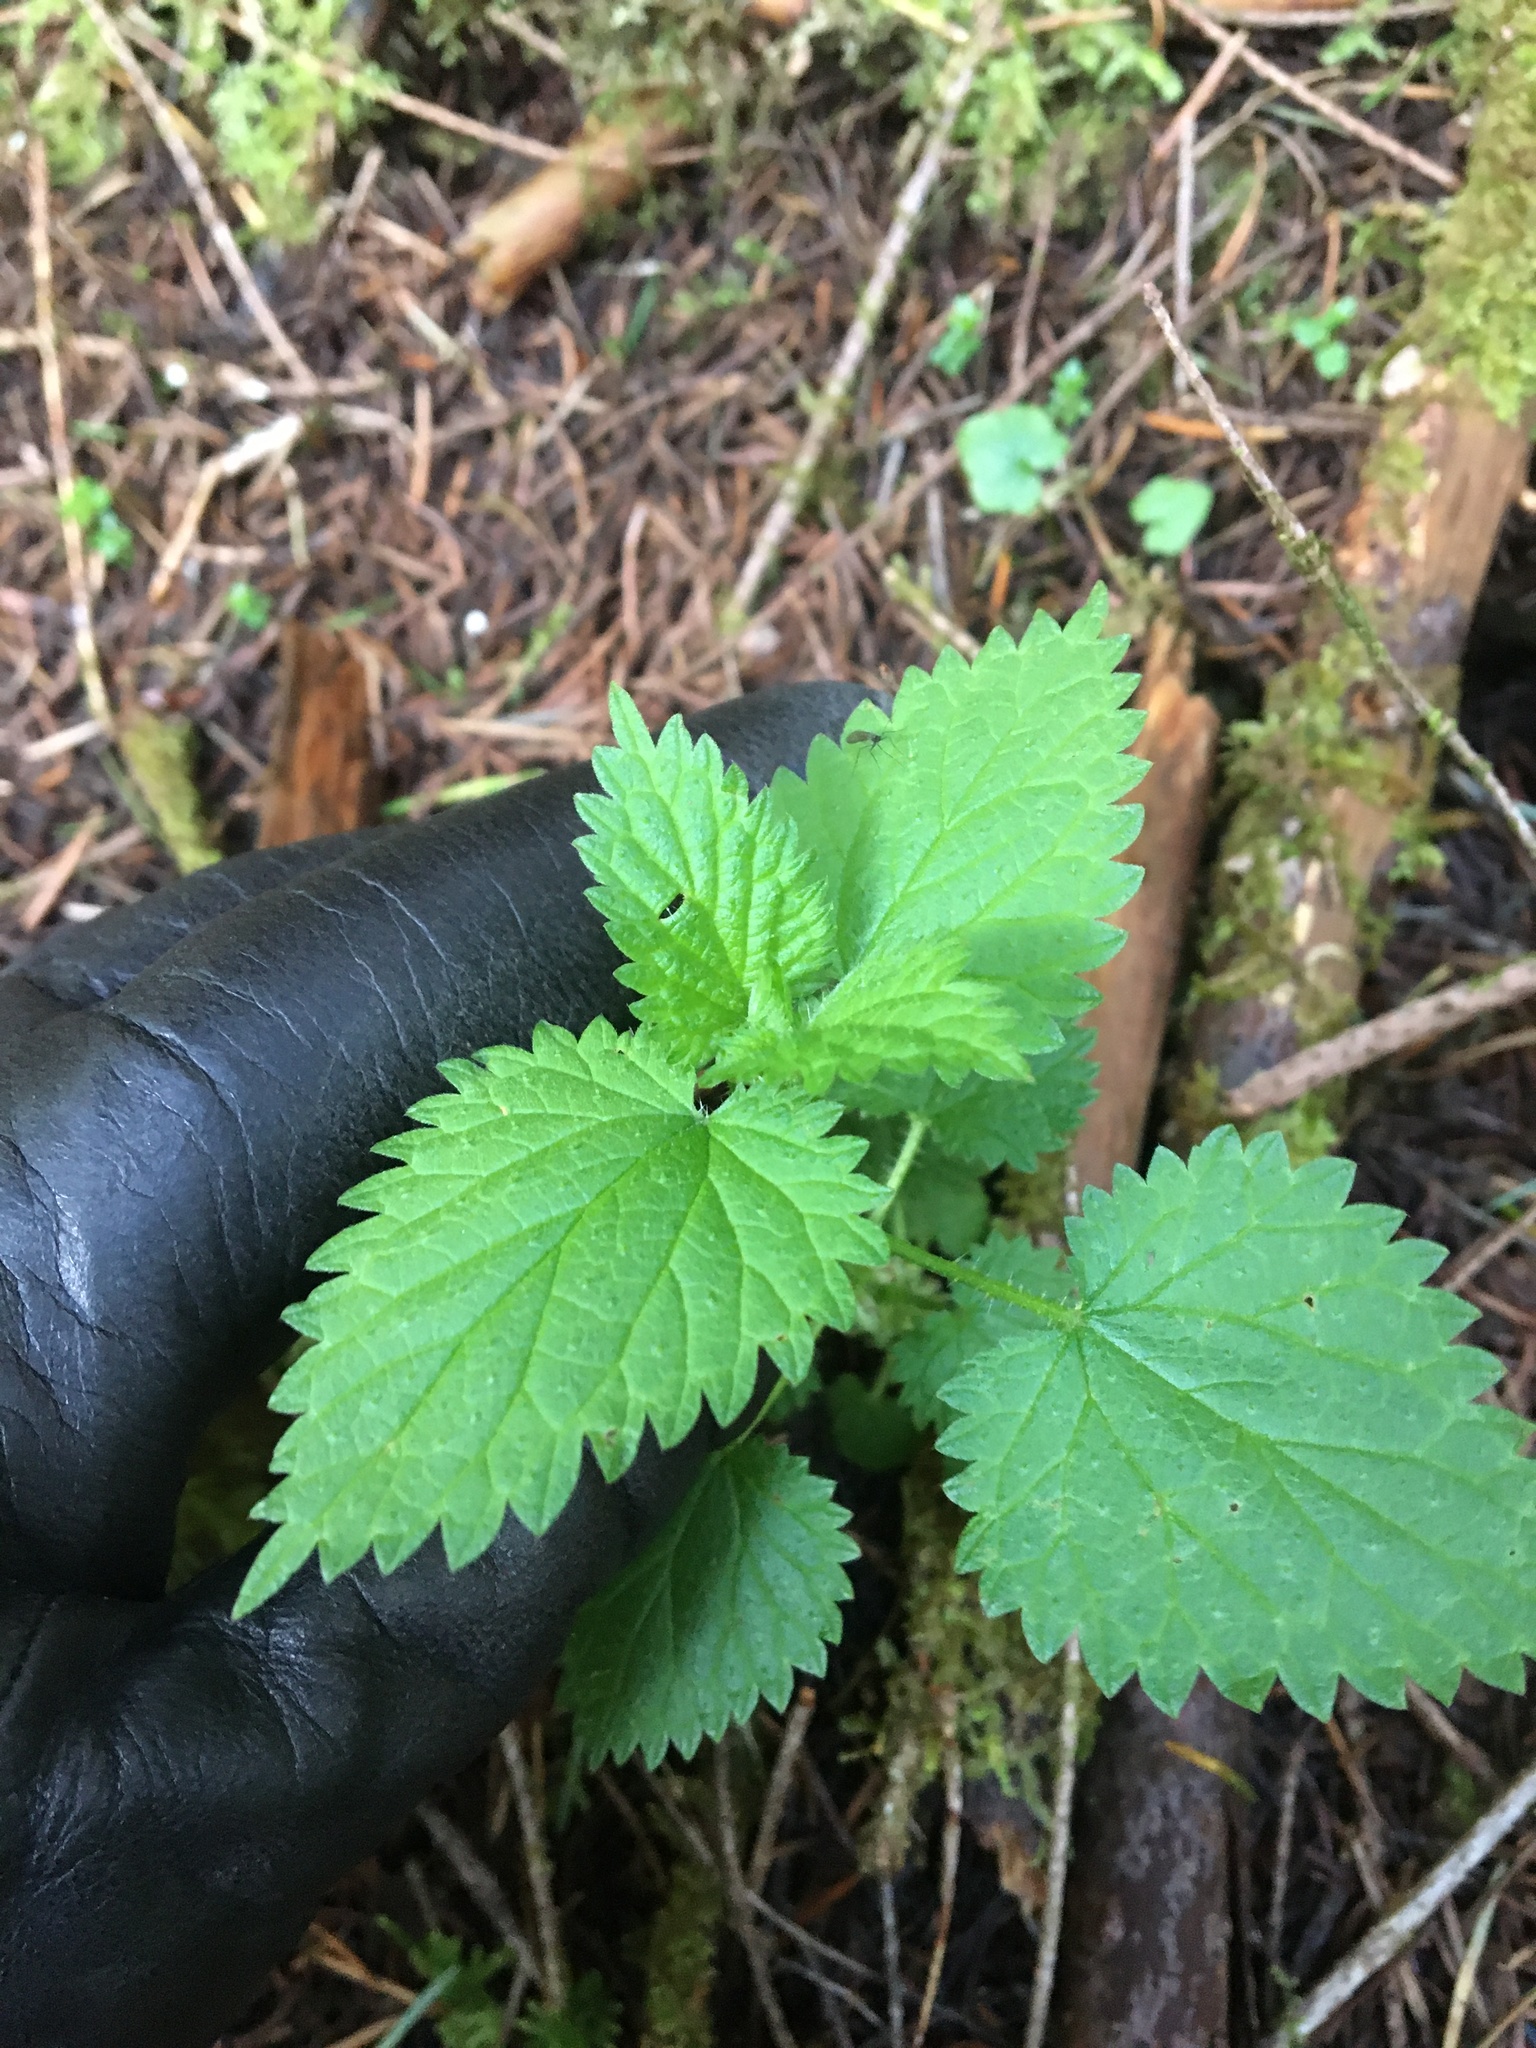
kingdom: Plantae
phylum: Tracheophyta
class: Magnoliopsida
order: Rosales
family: Urticaceae
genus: Urtica
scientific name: Urtica dioica
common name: Common nettle
